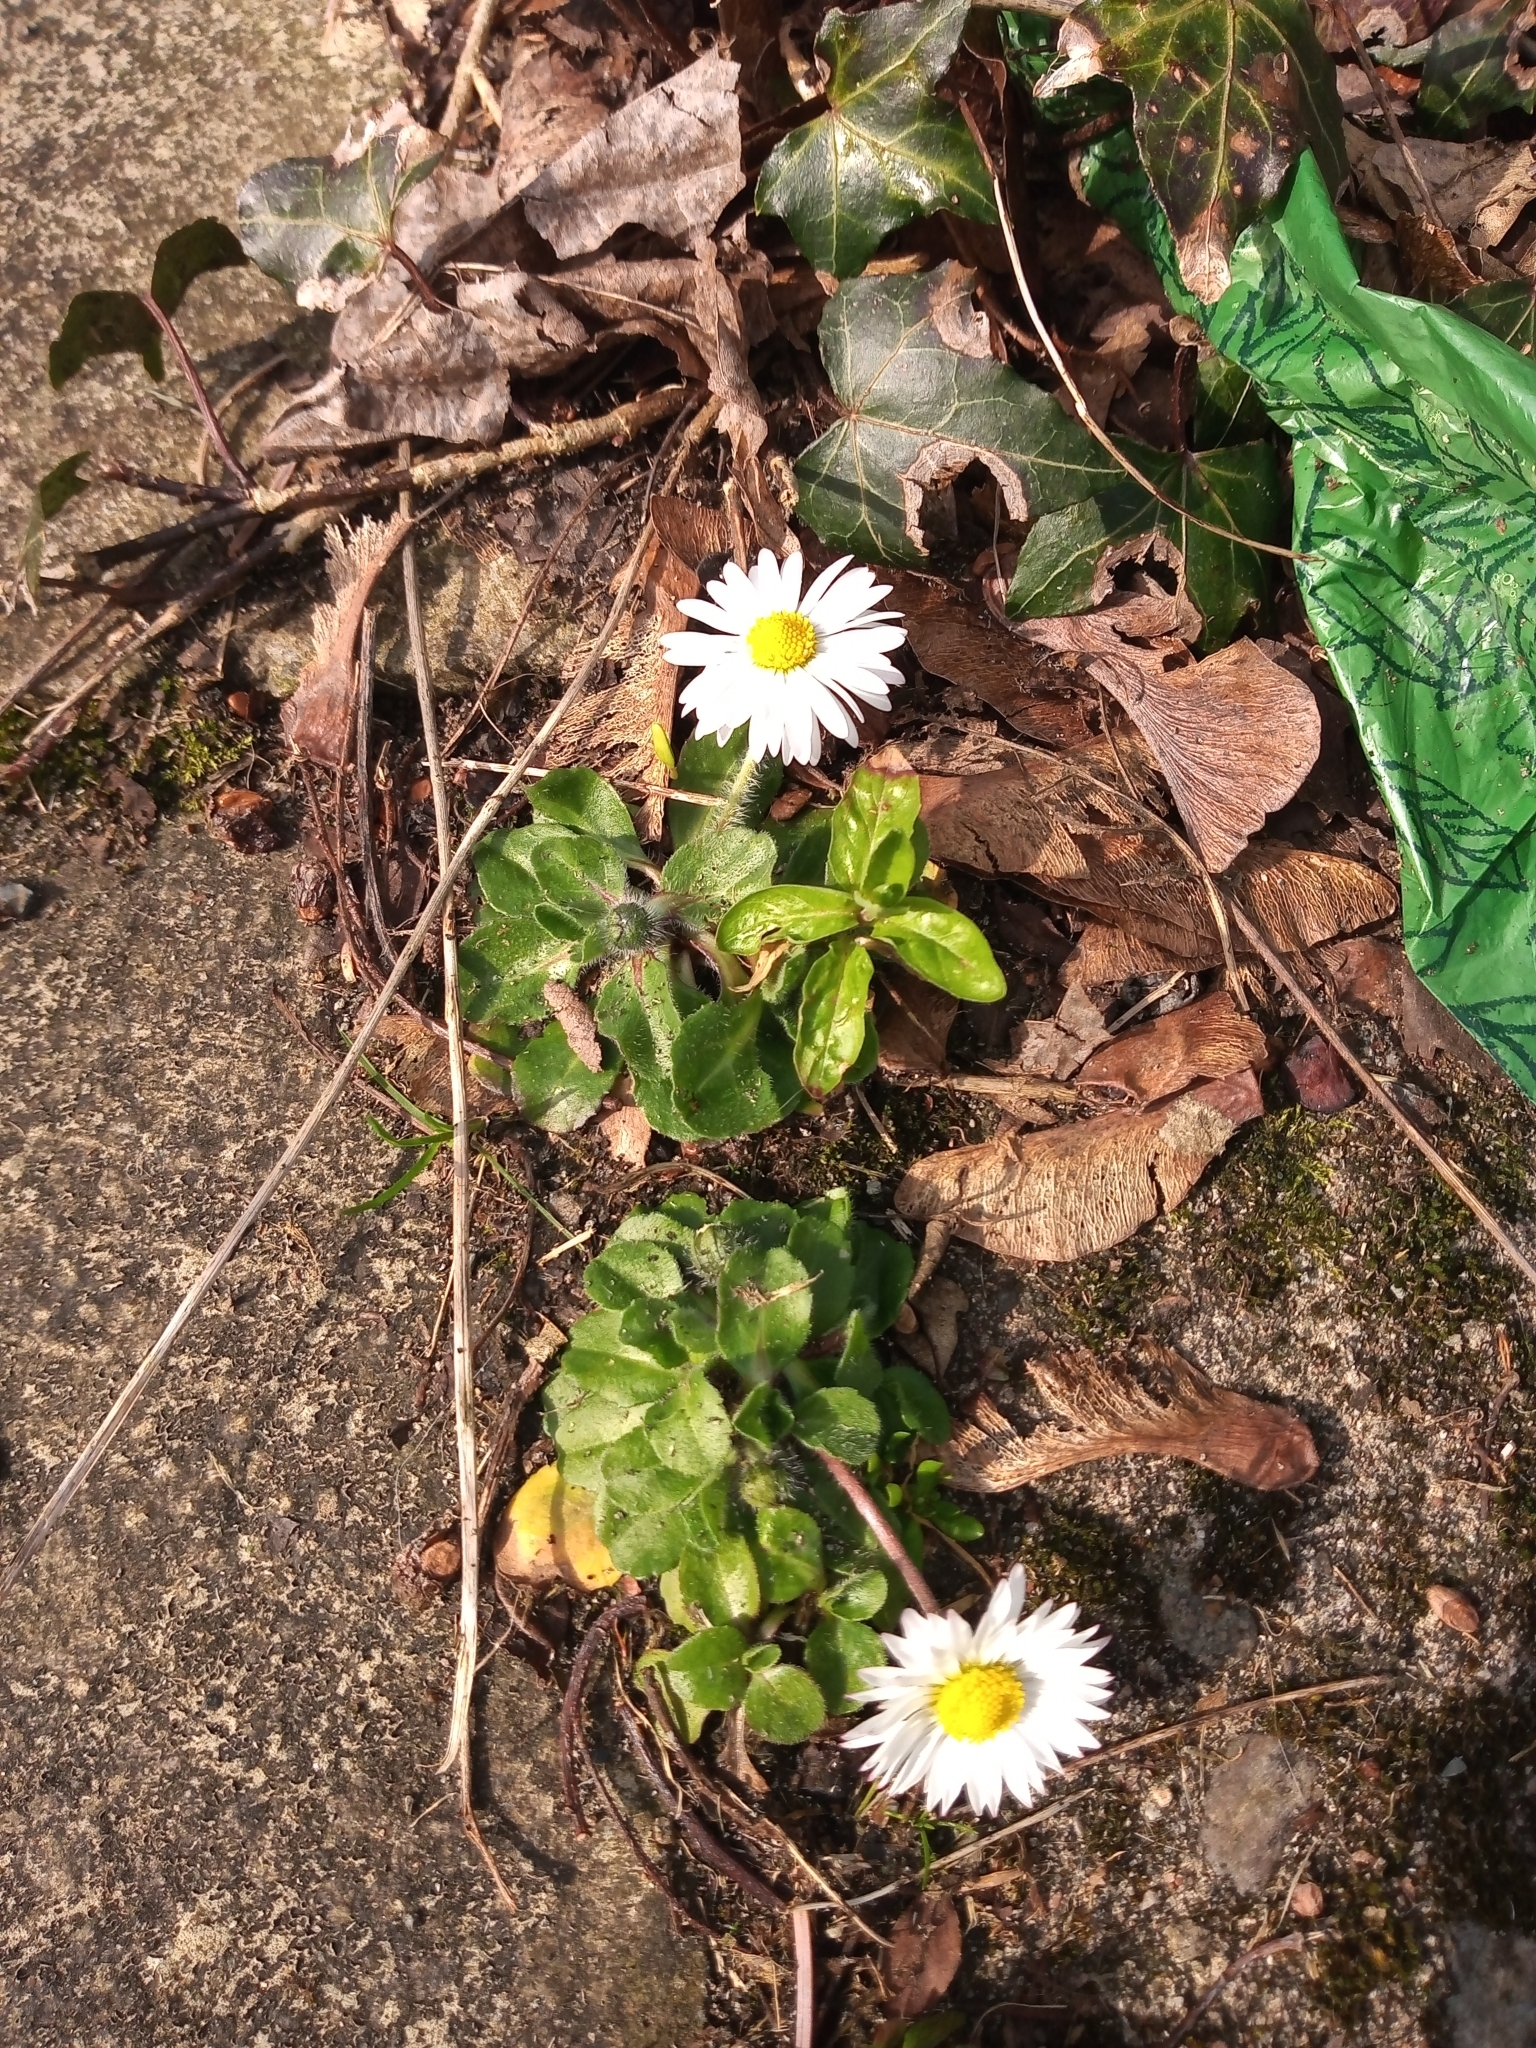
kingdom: Plantae
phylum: Tracheophyta
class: Magnoliopsida
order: Asterales
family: Asteraceae
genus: Bellis
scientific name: Bellis perennis
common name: Lawndaisy
